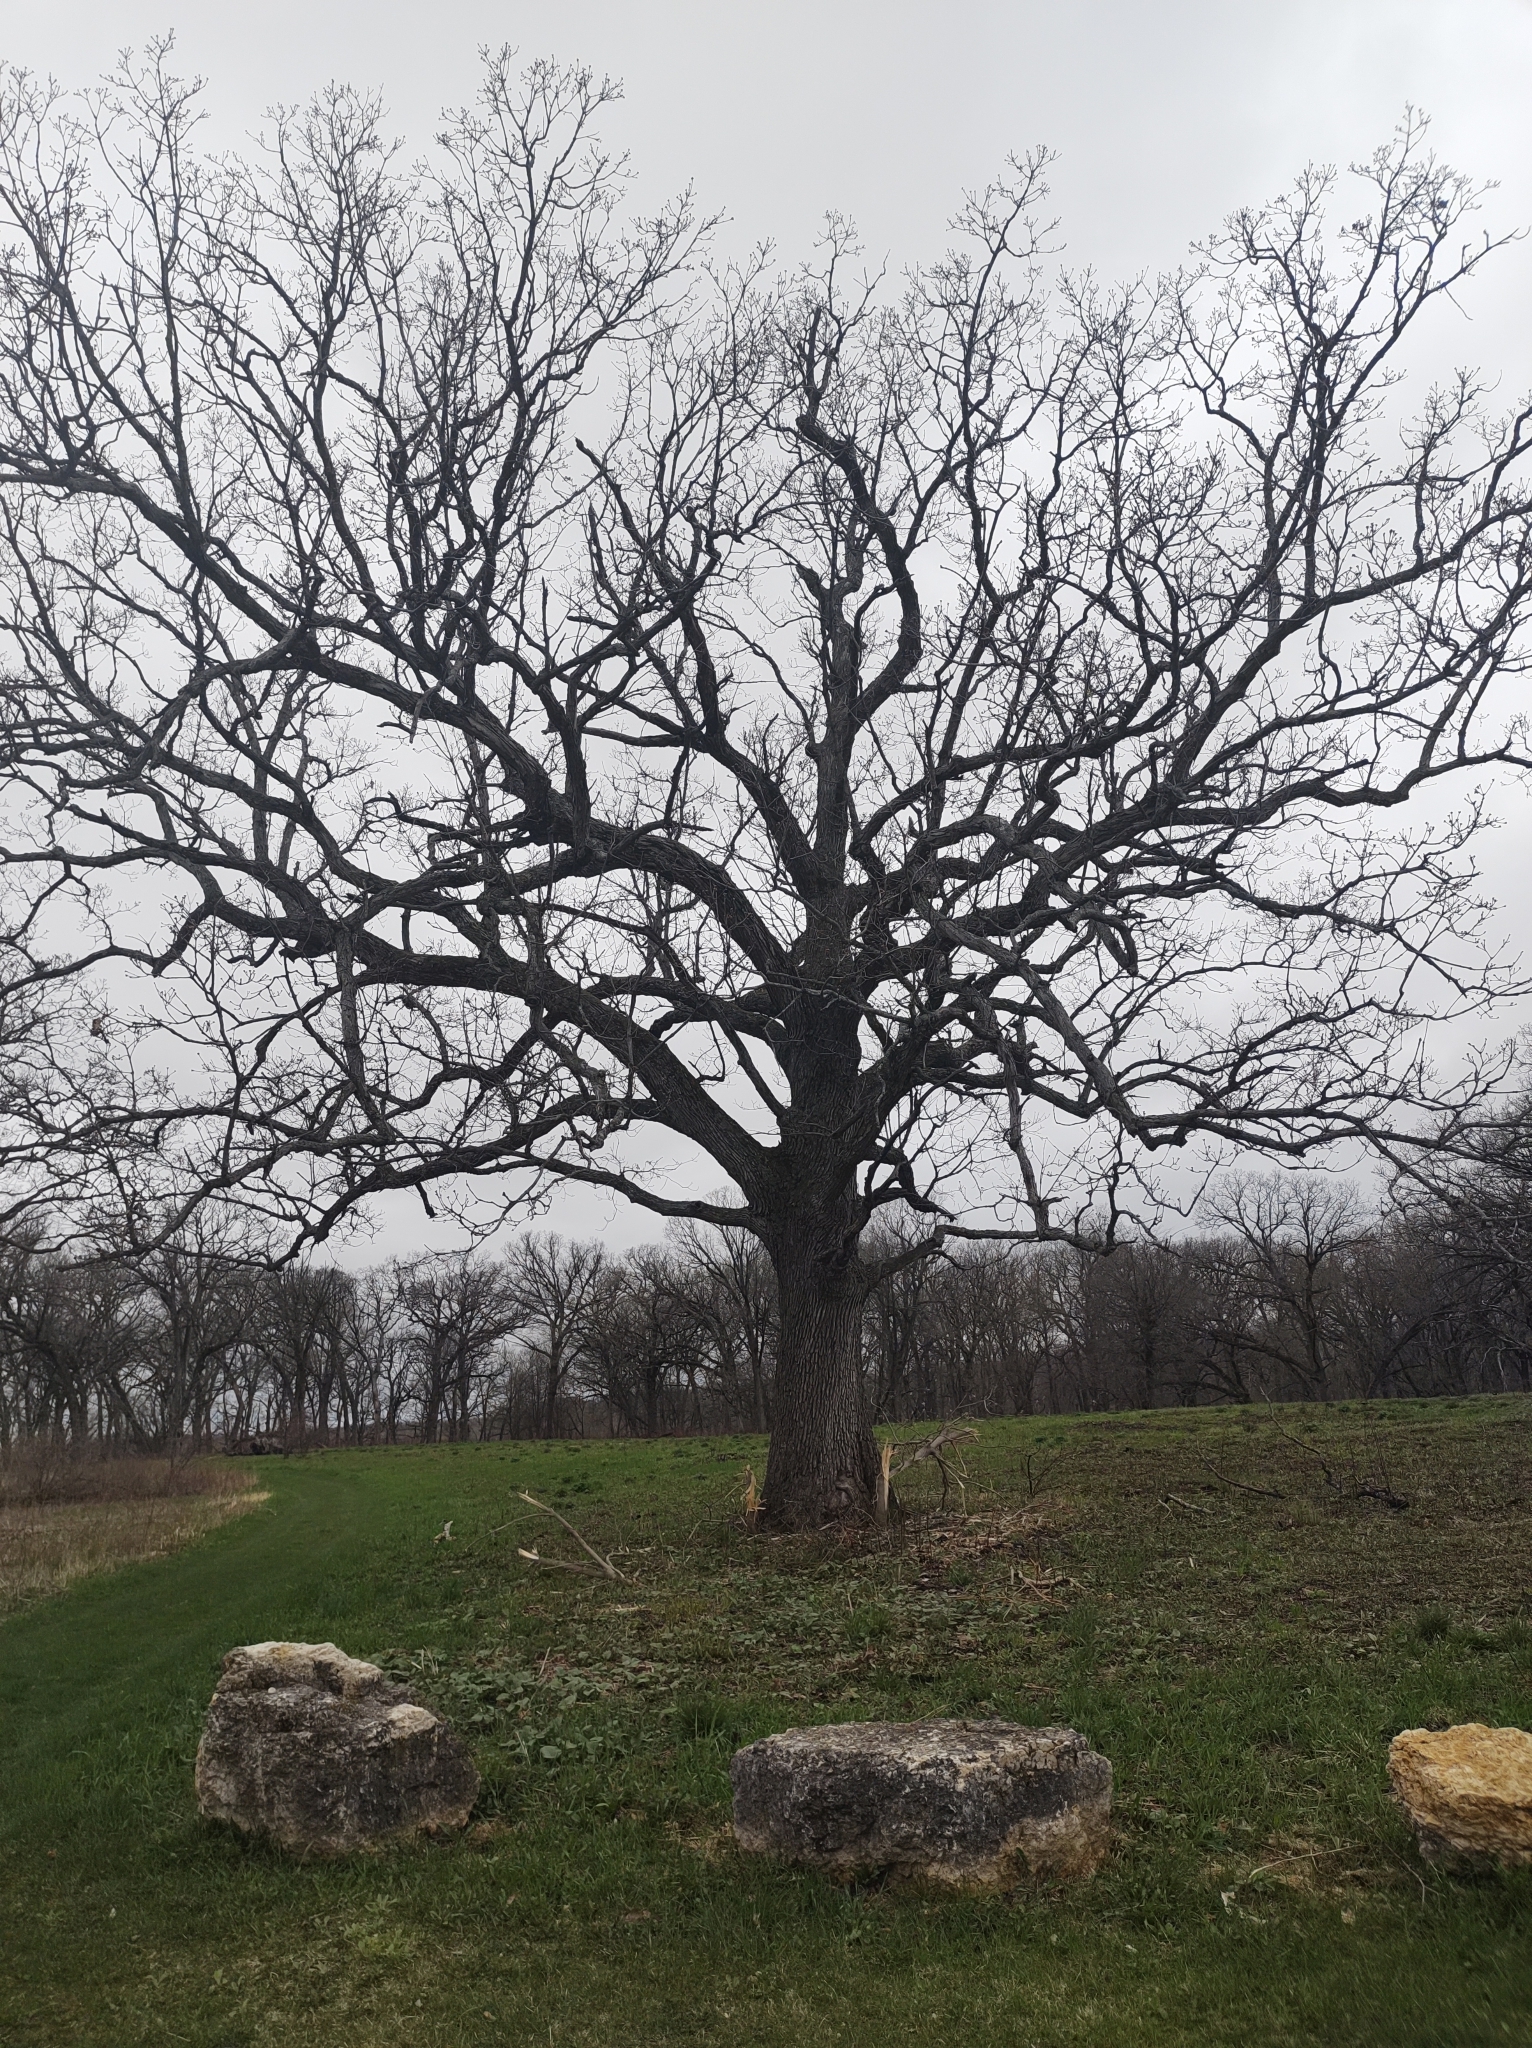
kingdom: Plantae
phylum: Tracheophyta
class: Magnoliopsida
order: Fagales
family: Fagaceae
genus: Quercus
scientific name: Quercus macrocarpa
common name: Bur oak
